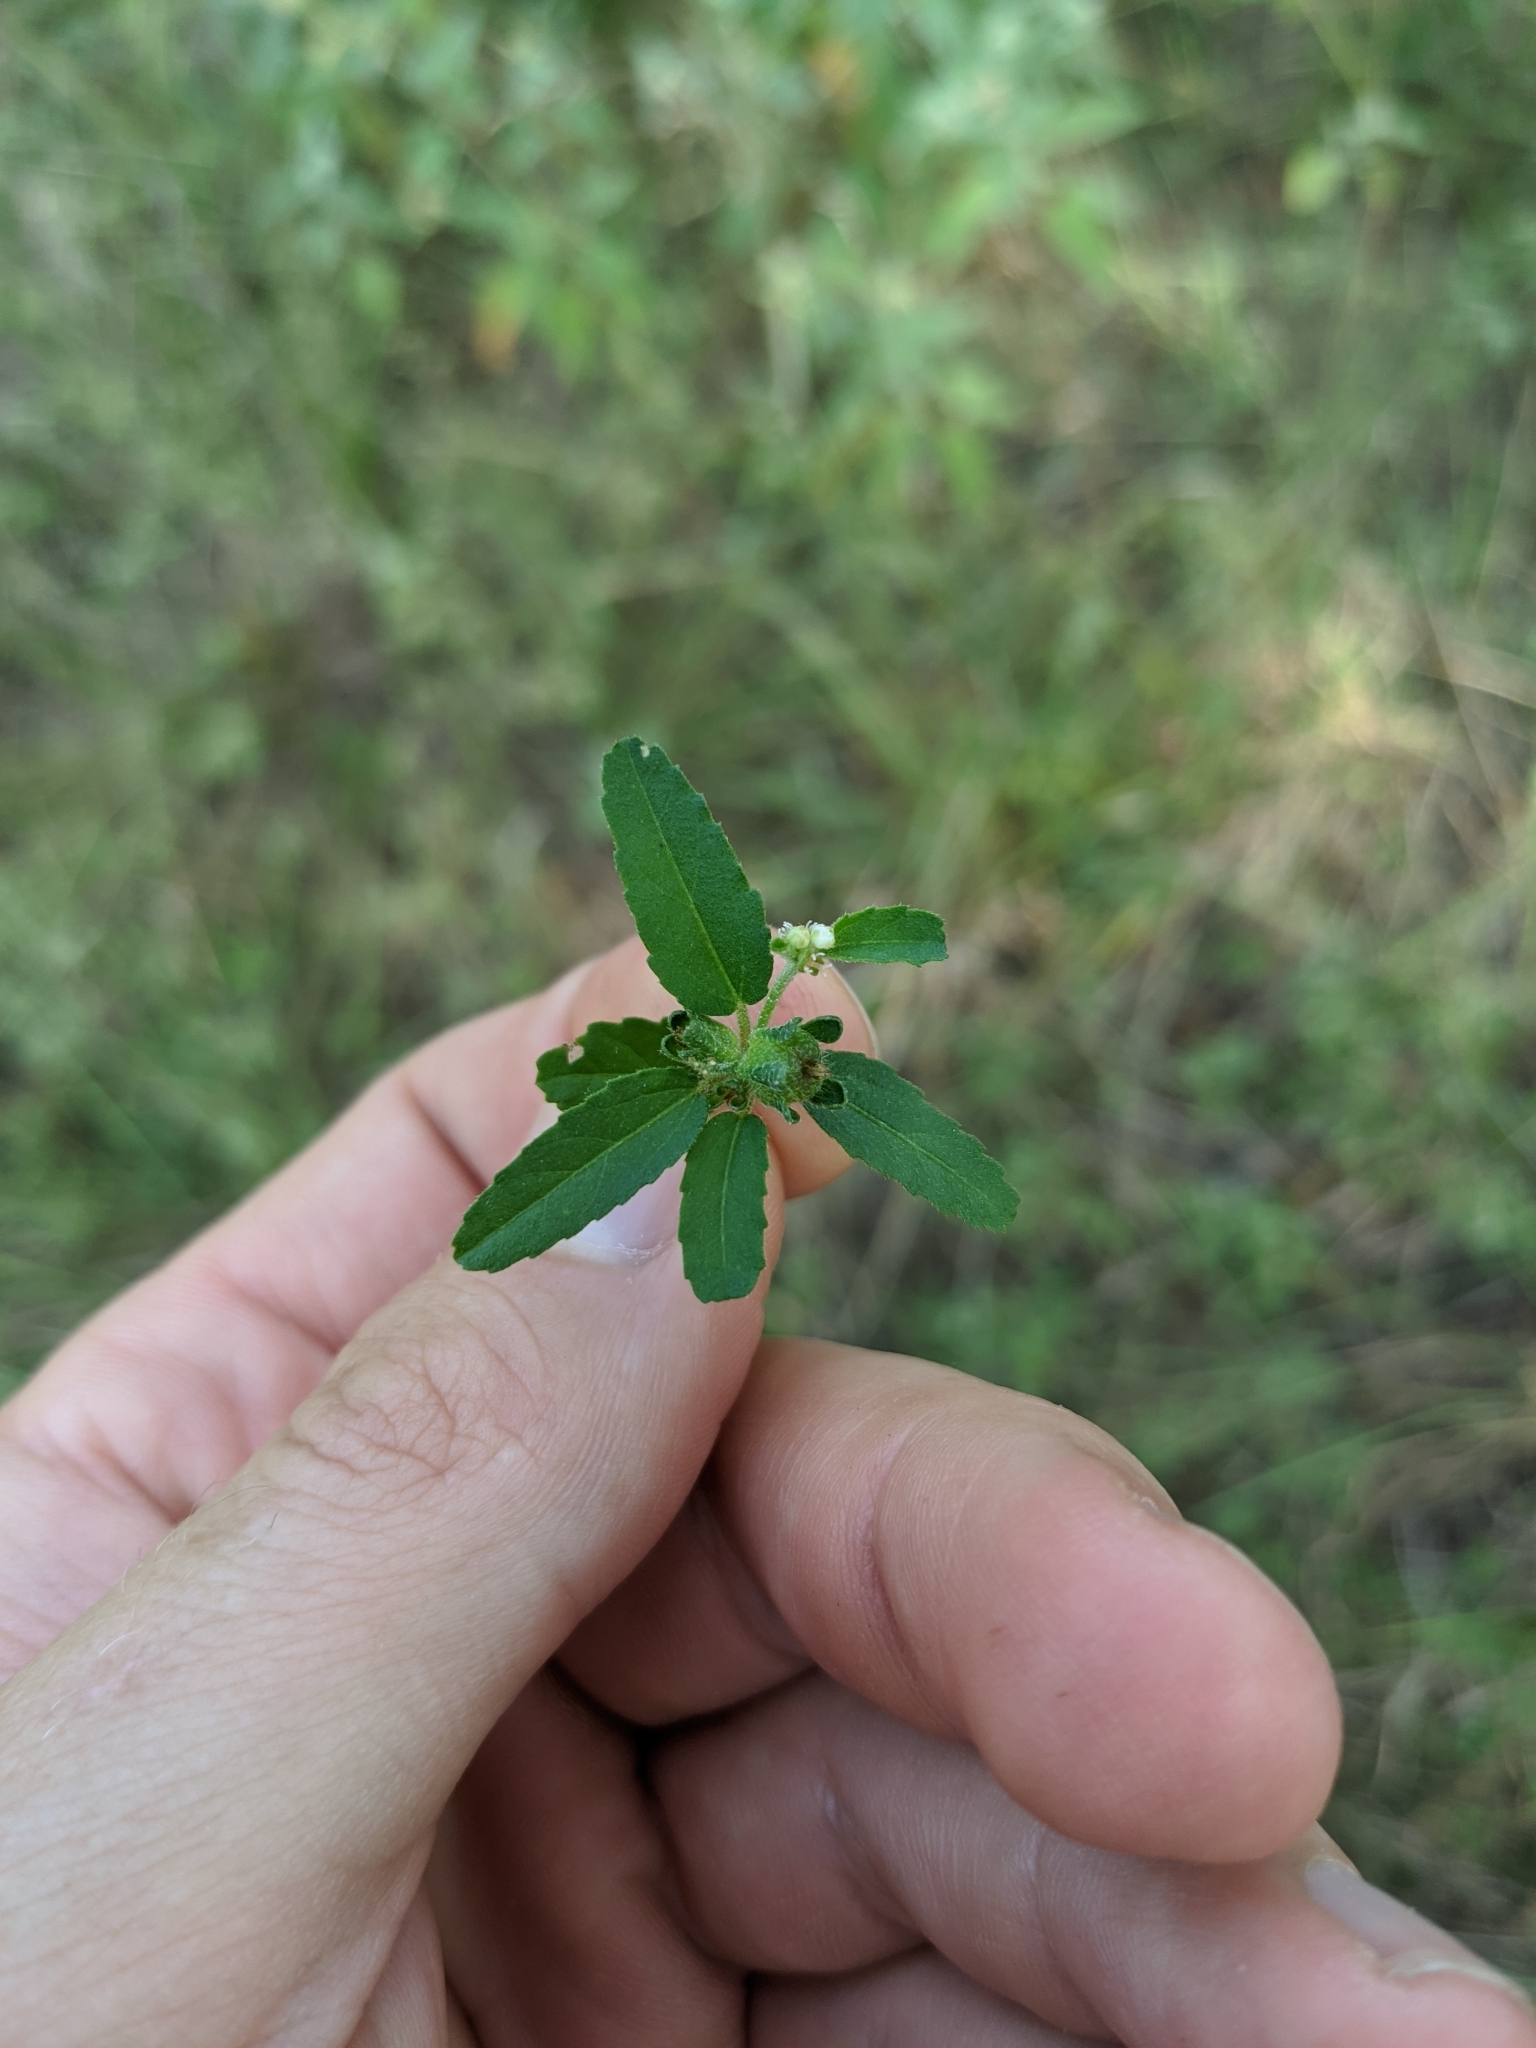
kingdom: Plantae
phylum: Tracheophyta
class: Magnoliopsida
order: Malpighiales
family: Euphorbiaceae
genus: Croton
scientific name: Croton glandulosus
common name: Tropic croton
